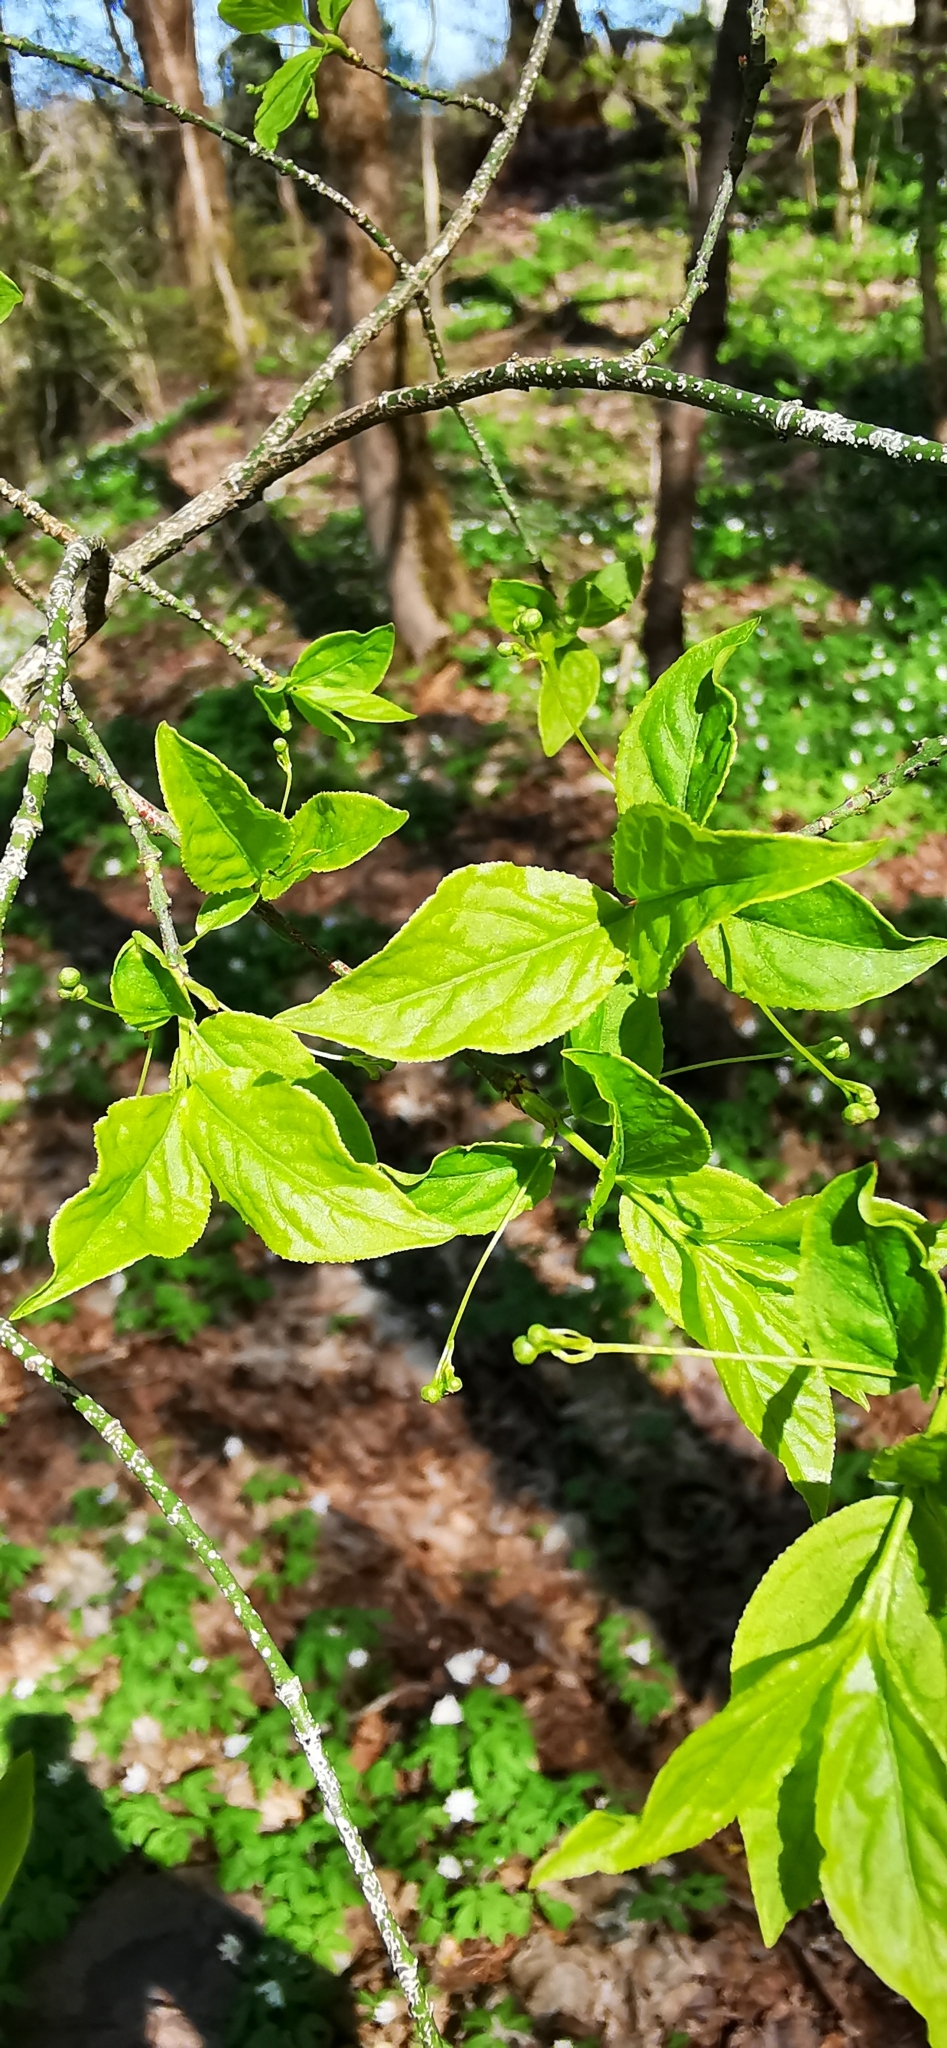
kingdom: Plantae
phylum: Tracheophyta
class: Magnoliopsida
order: Celastrales
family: Celastraceae
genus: Euonymus
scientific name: Euonymus verrucosus
